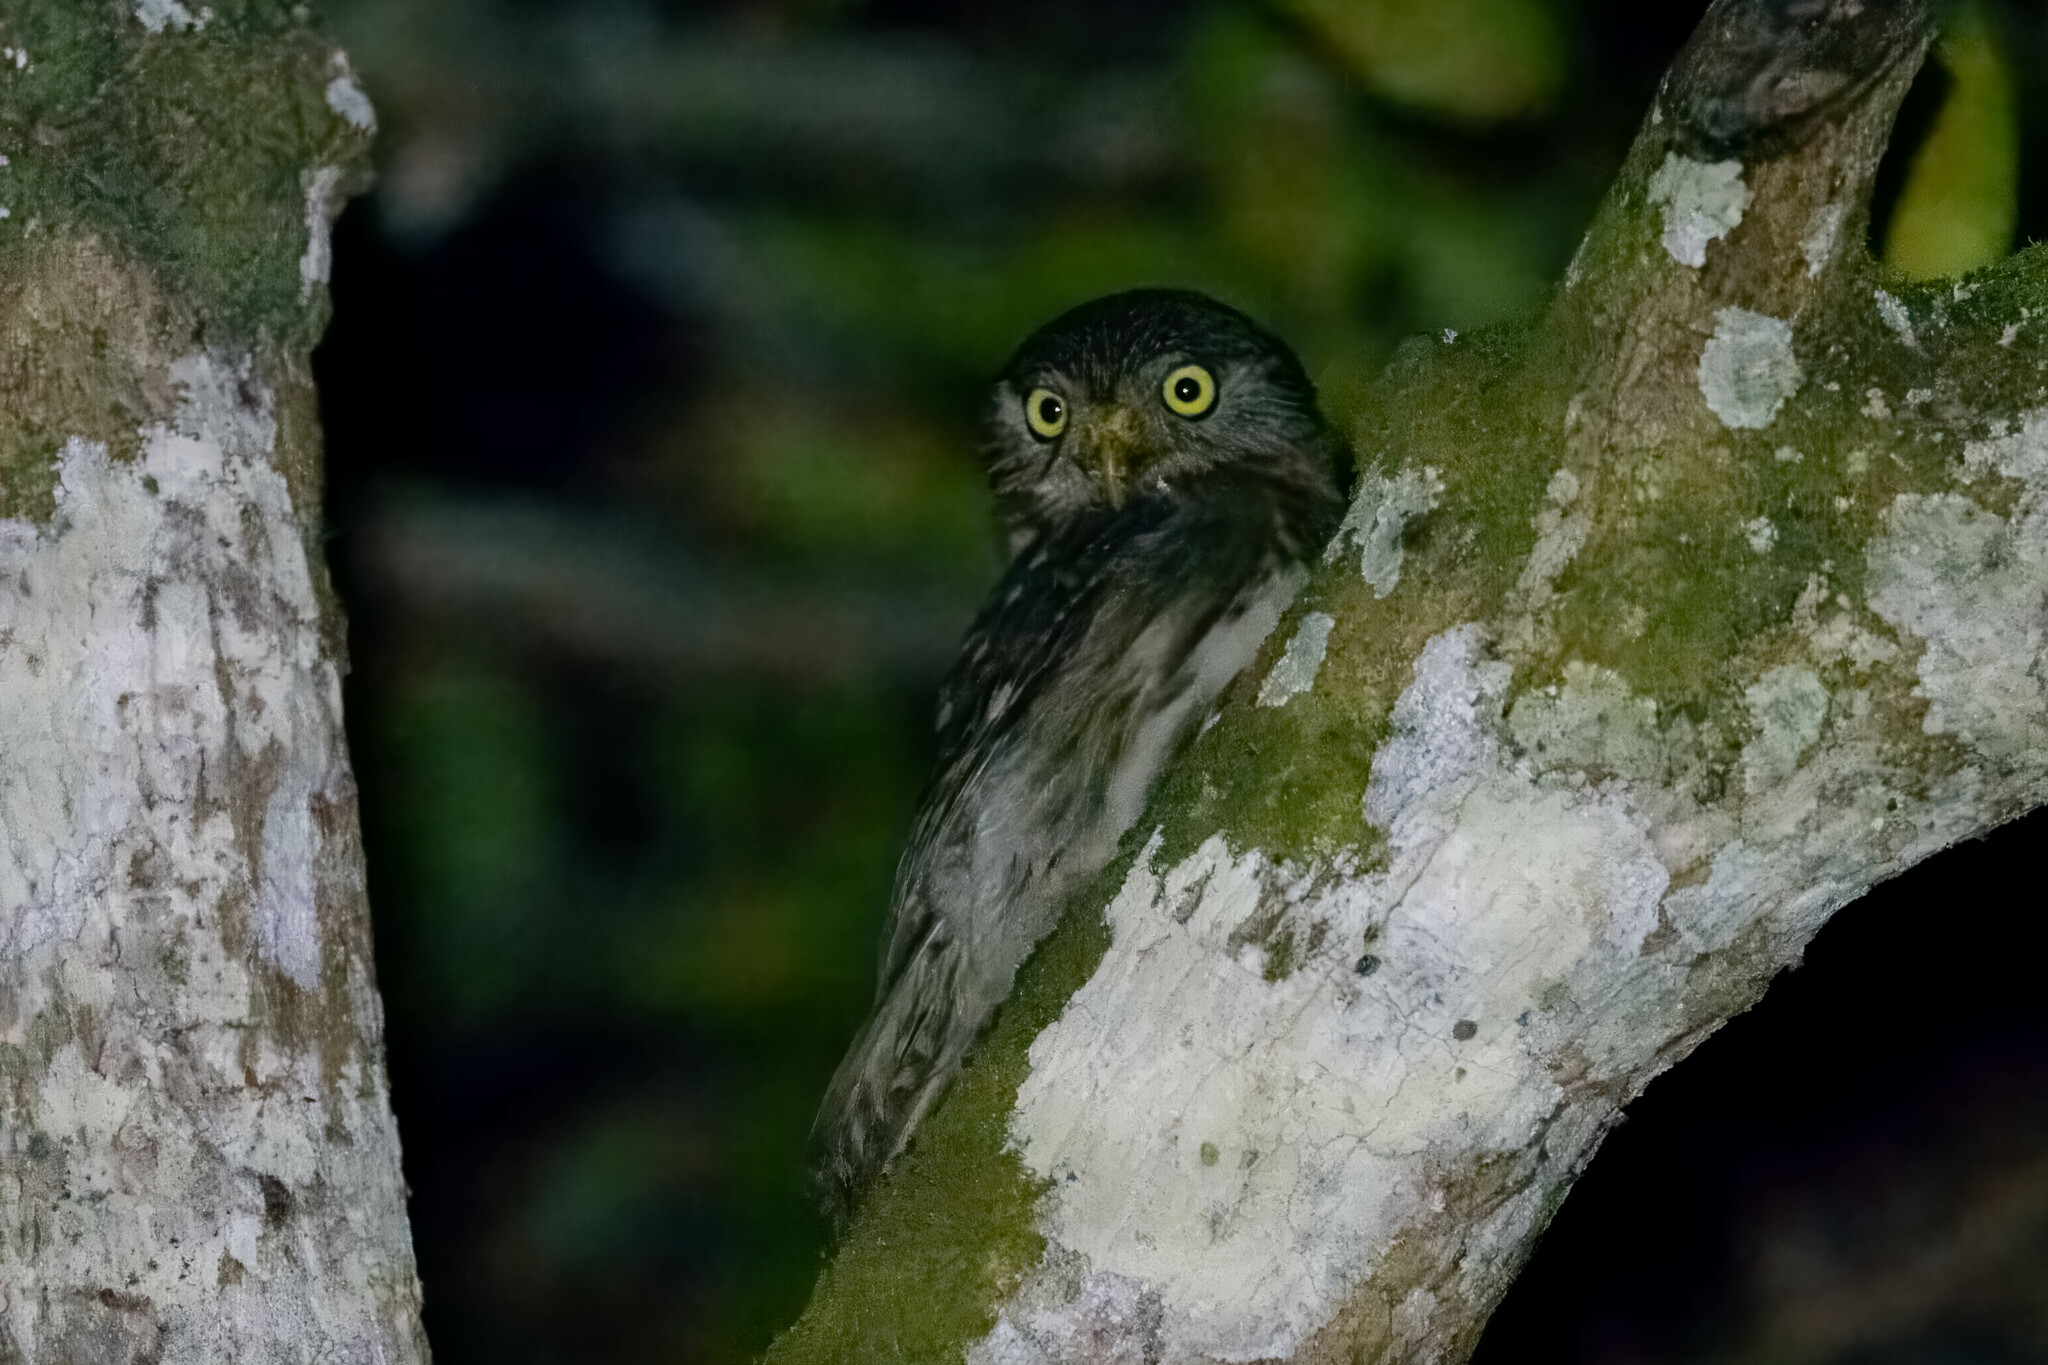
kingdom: Animalia
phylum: Chordata
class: Aves
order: Strigiformes
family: Strigidae
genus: Glaucidium
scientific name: Glaucidium peruanum
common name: Pacific pygmy owl
